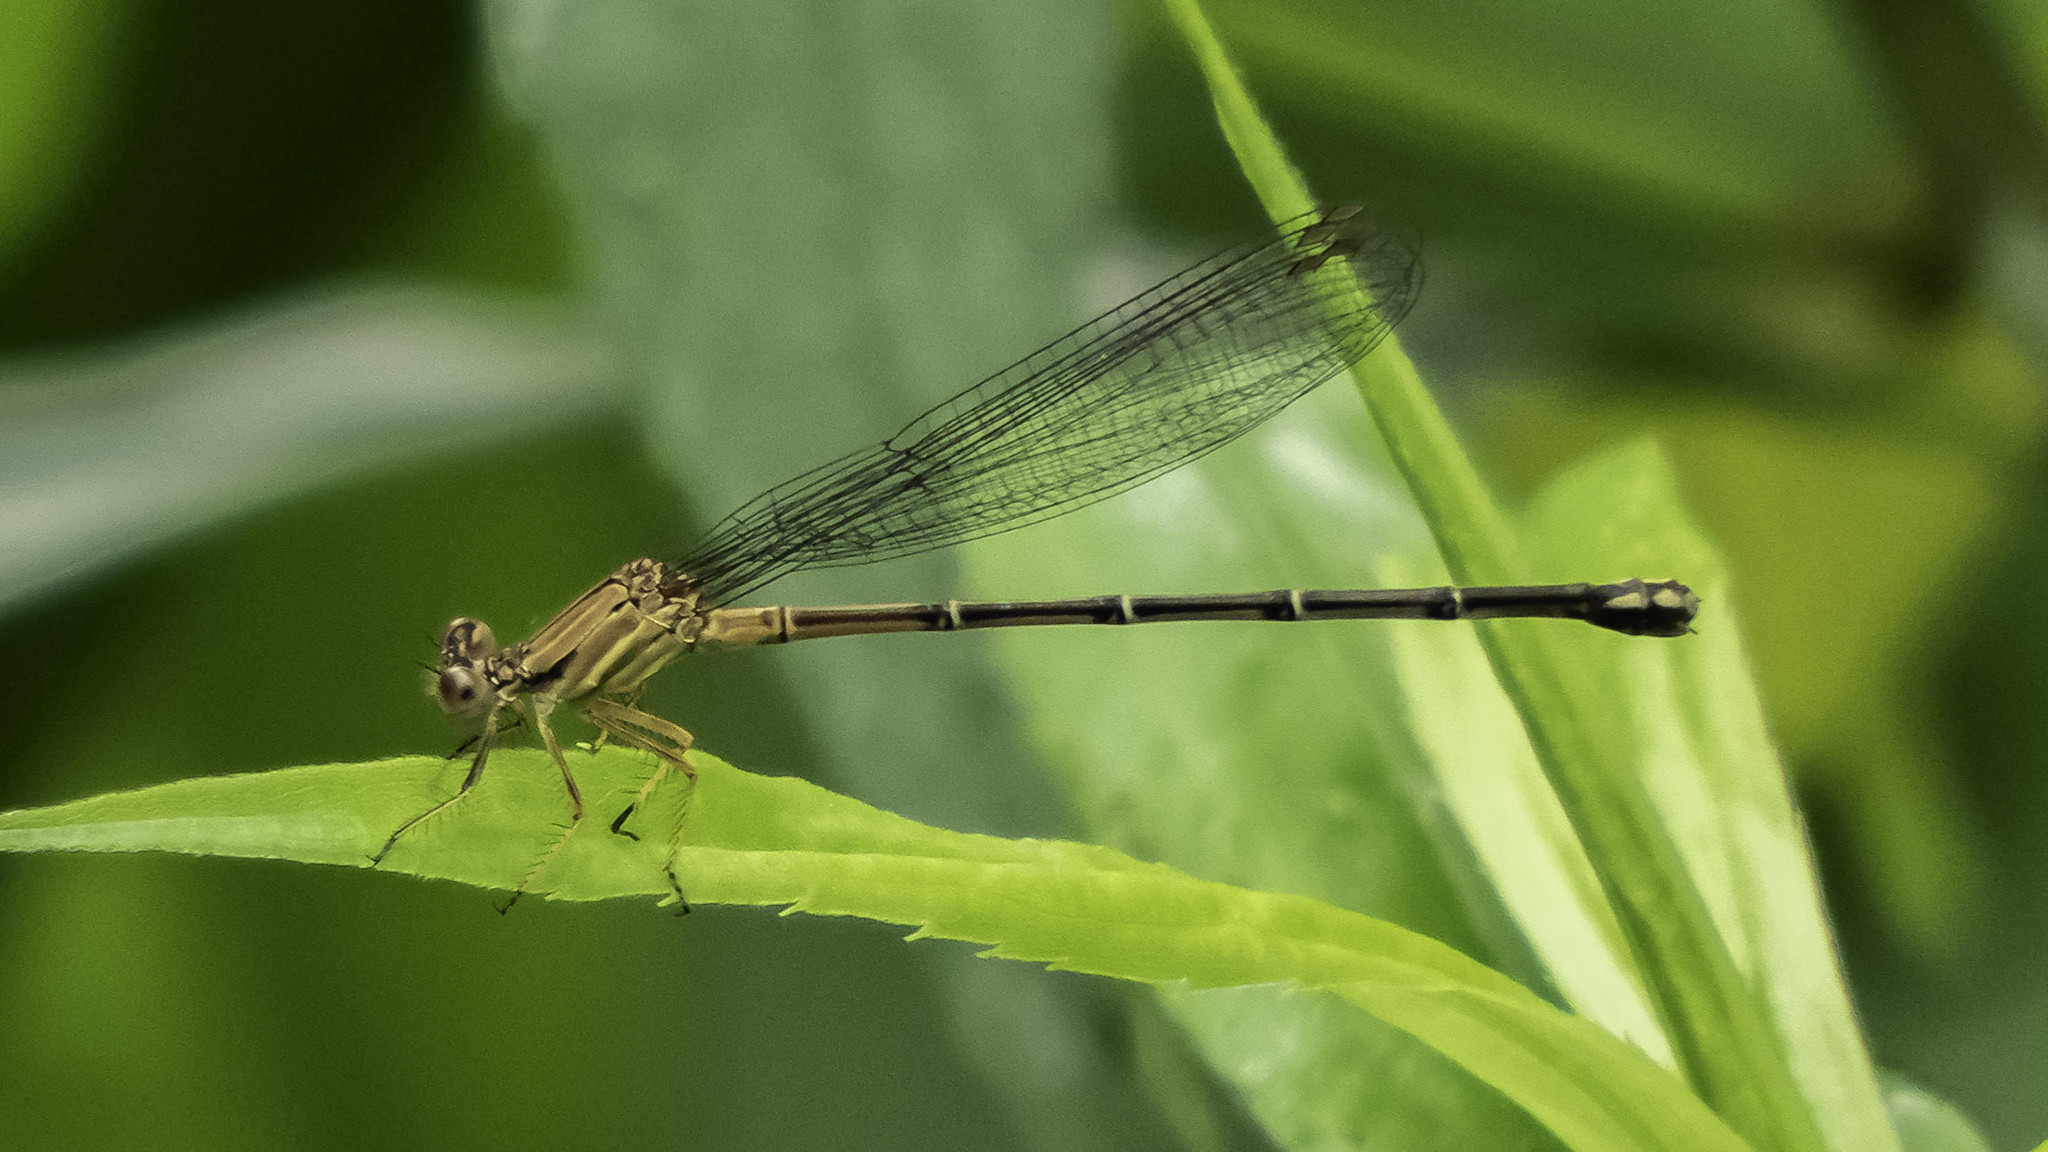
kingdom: Animalia
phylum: Arthropoda
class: Insecta
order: Odonata
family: Coenagrionidae
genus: Argia
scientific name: Argia apicalis
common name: Blue-fronted dancer
